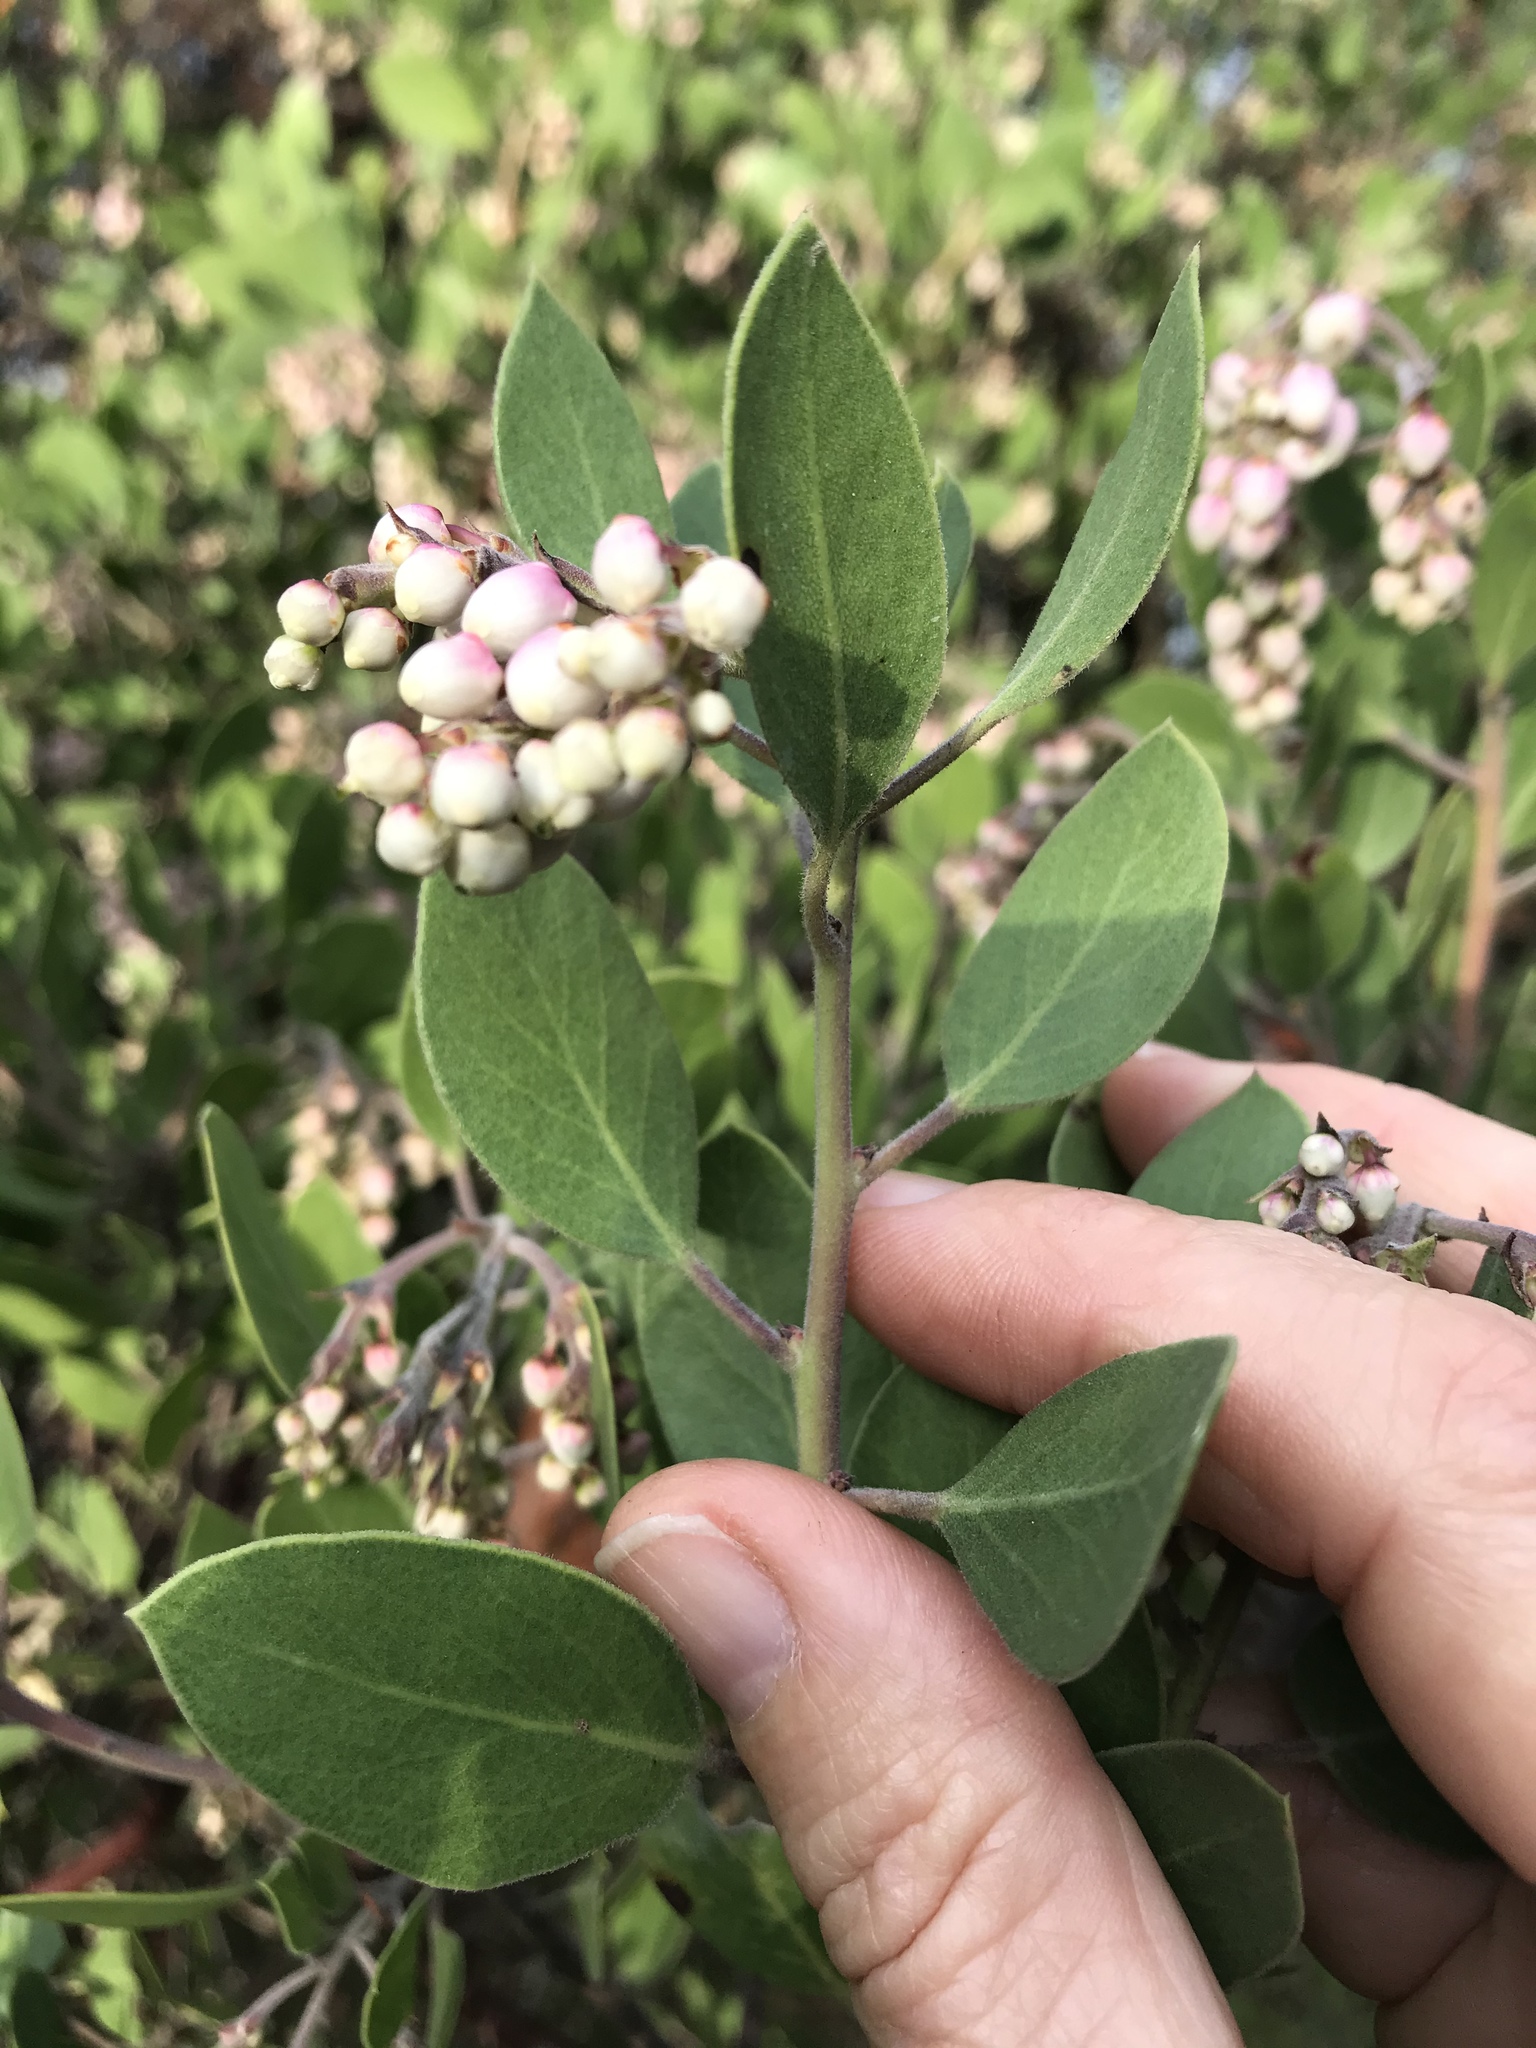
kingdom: Plantae
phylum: Tracheophyta
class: Magnoliopsida
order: Ericales
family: Ericaceae
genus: Arctostaphylos
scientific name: Arctostaphylos manzanita
